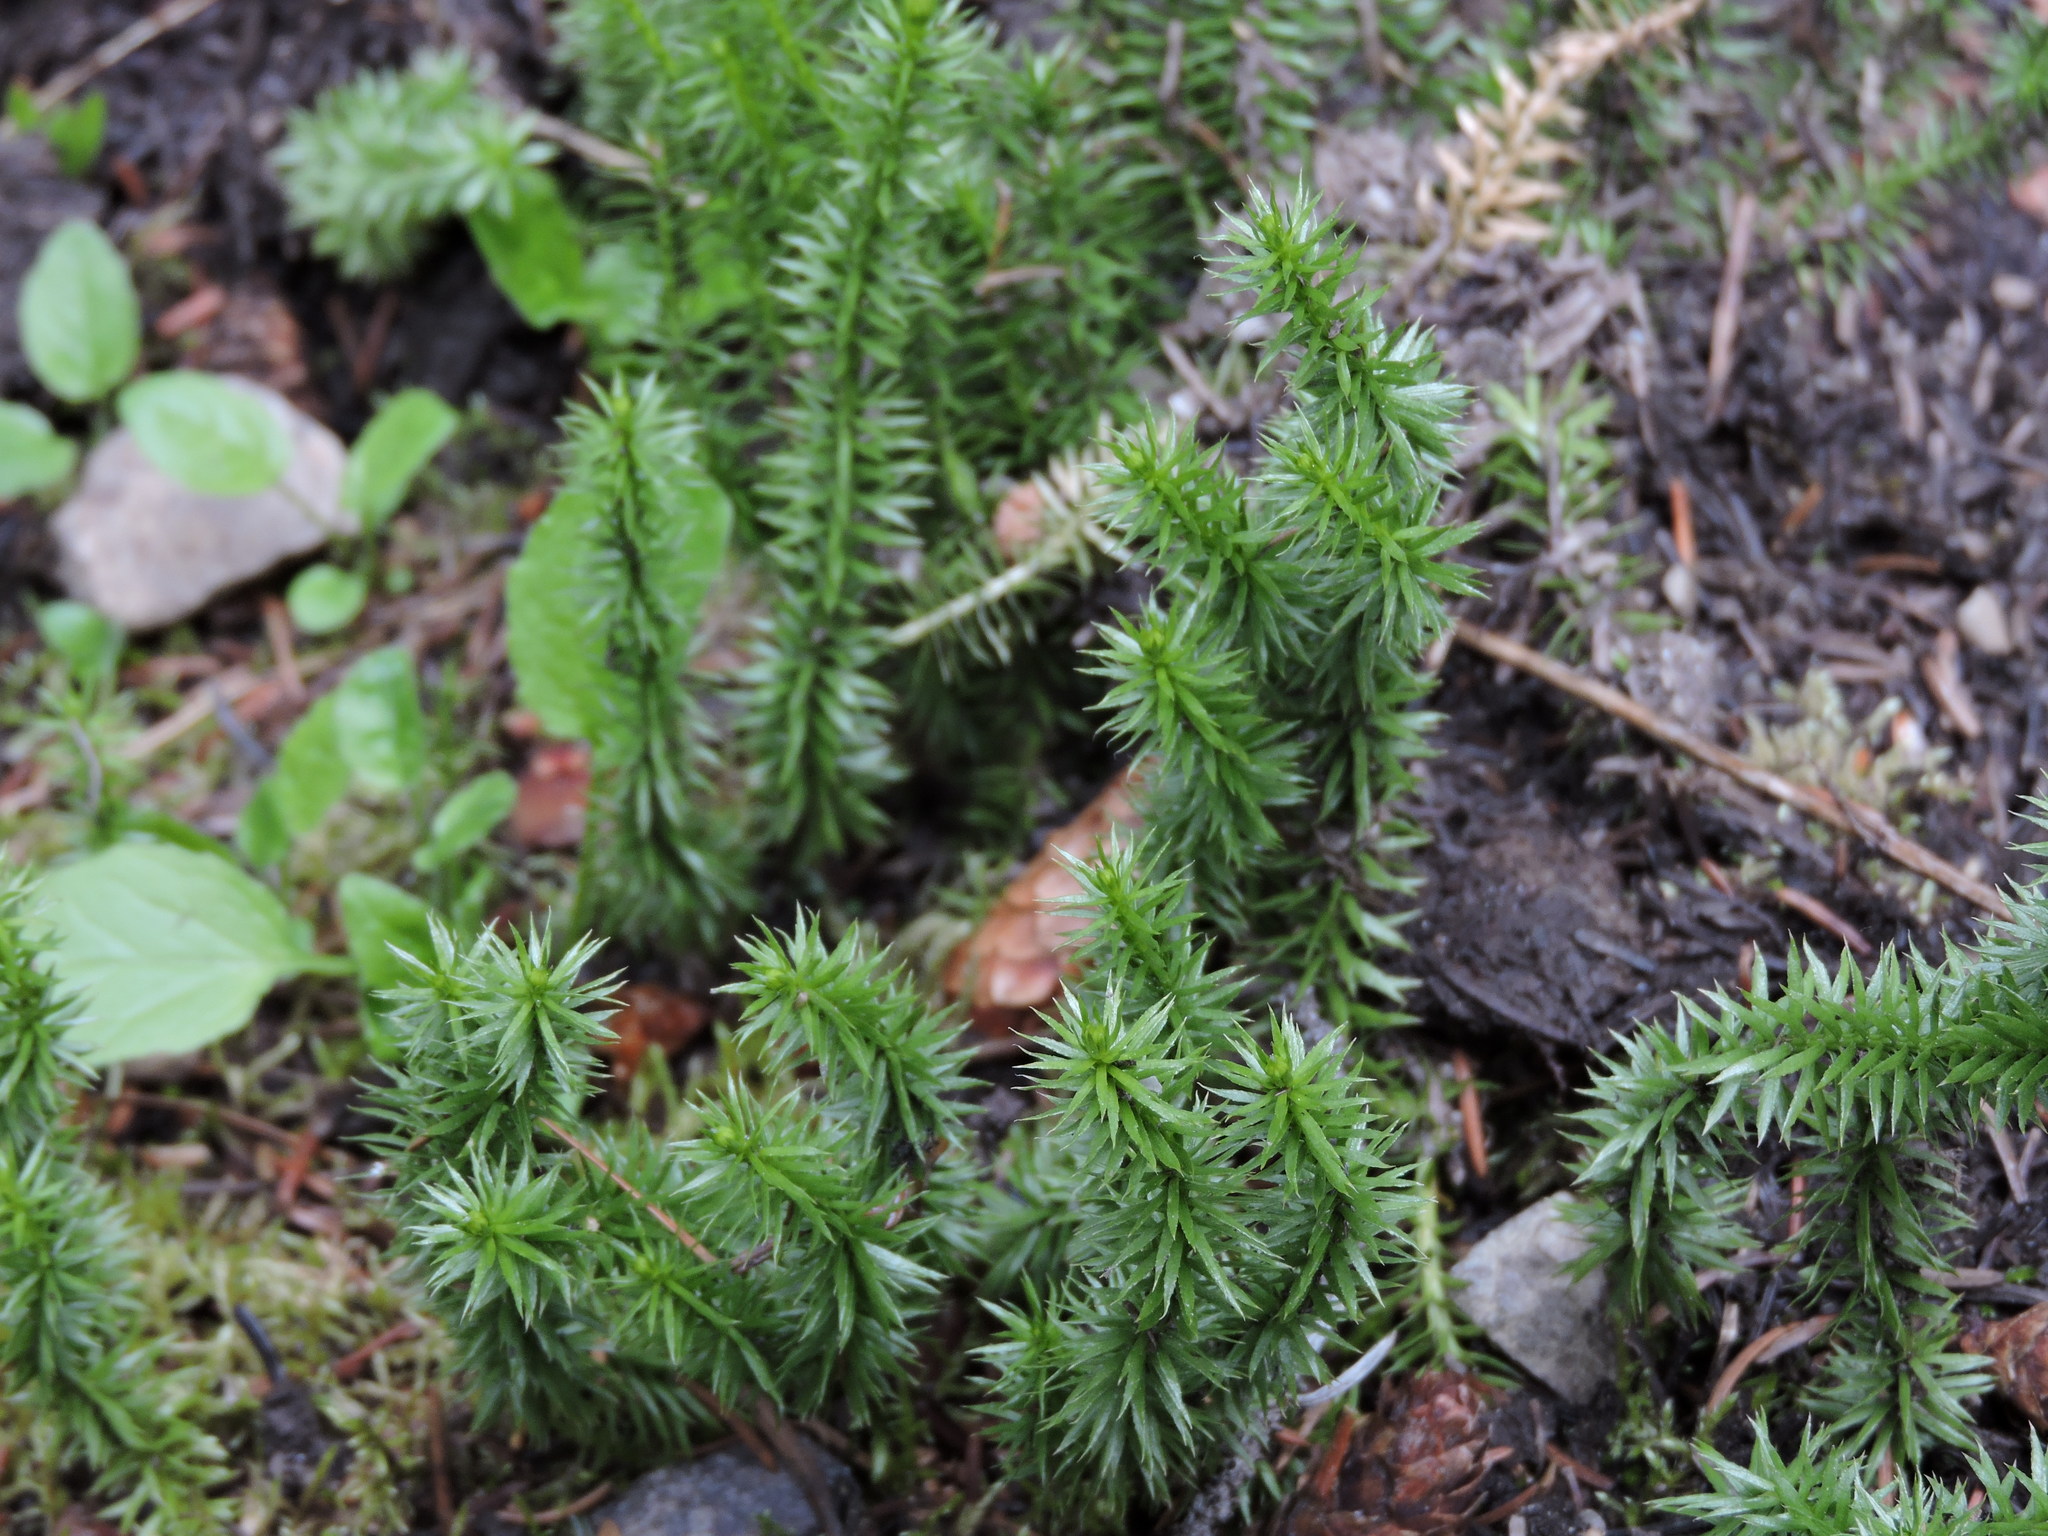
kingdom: Plantae
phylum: Tracheophyta
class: Lycopodiopsida
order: Lycopodiales
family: Lycopodiaceae
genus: Spinulum
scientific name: Spinulum annotinum
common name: Interrupted club-moss
